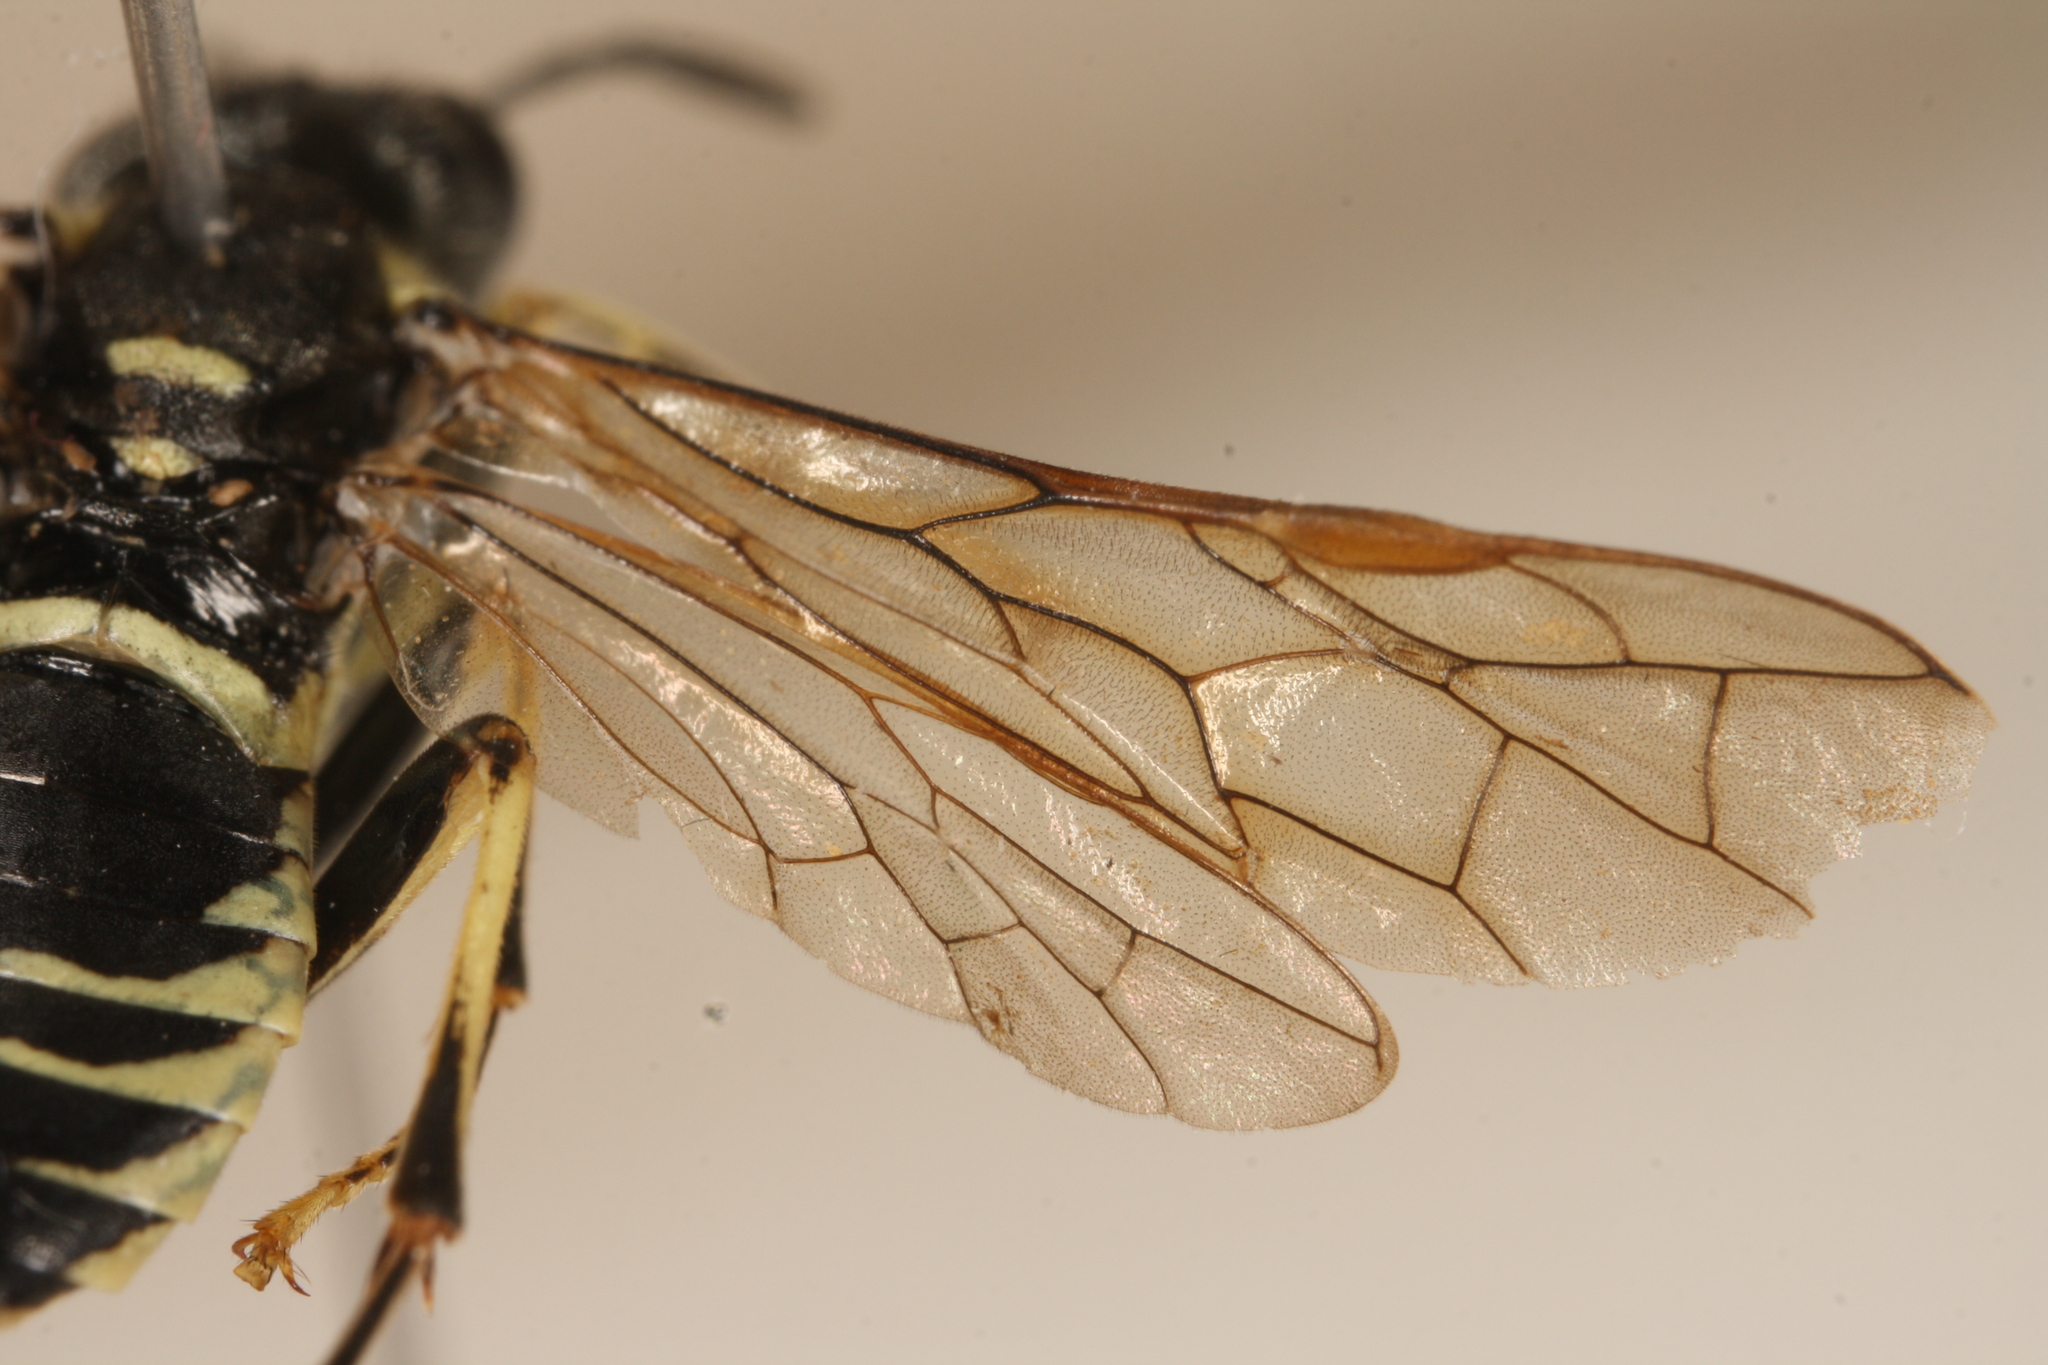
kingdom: Animalia
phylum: Arthropoda
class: Insecta
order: Hymenoptera
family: Tenthredinidae
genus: Tenthredo
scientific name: Tenthredo notha
